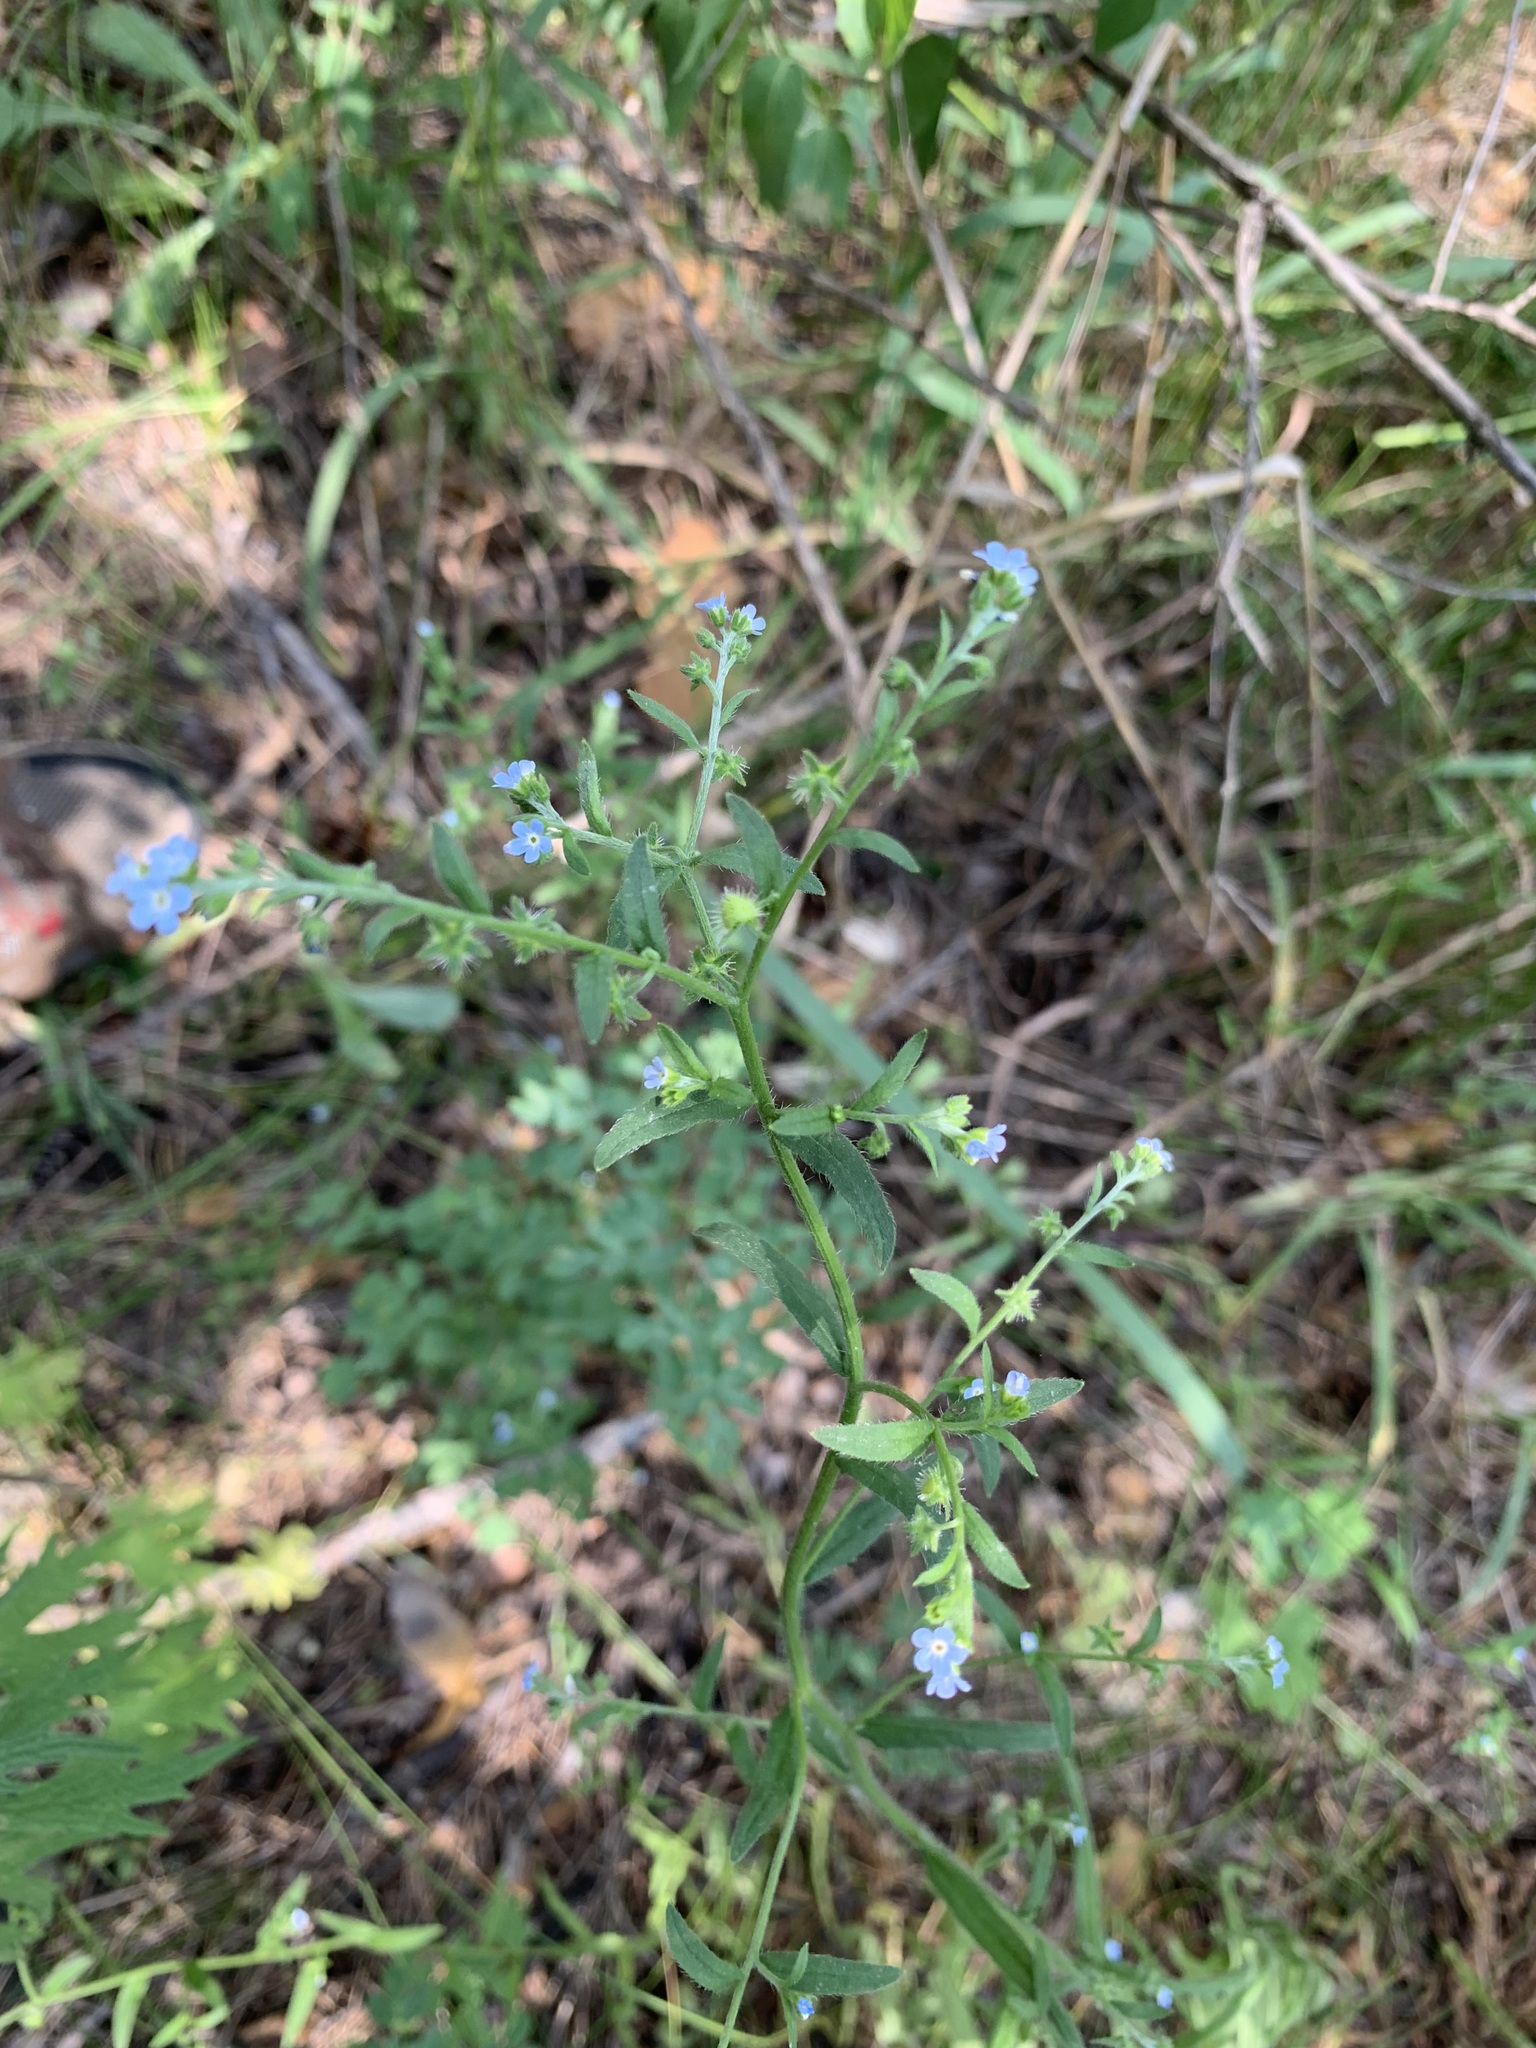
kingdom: Plantae
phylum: Tracheophyta
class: Magnoliopsida
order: Boraginales
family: Boraginaceae
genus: Lappula
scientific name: Lappula squarrosa
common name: European stickseed
